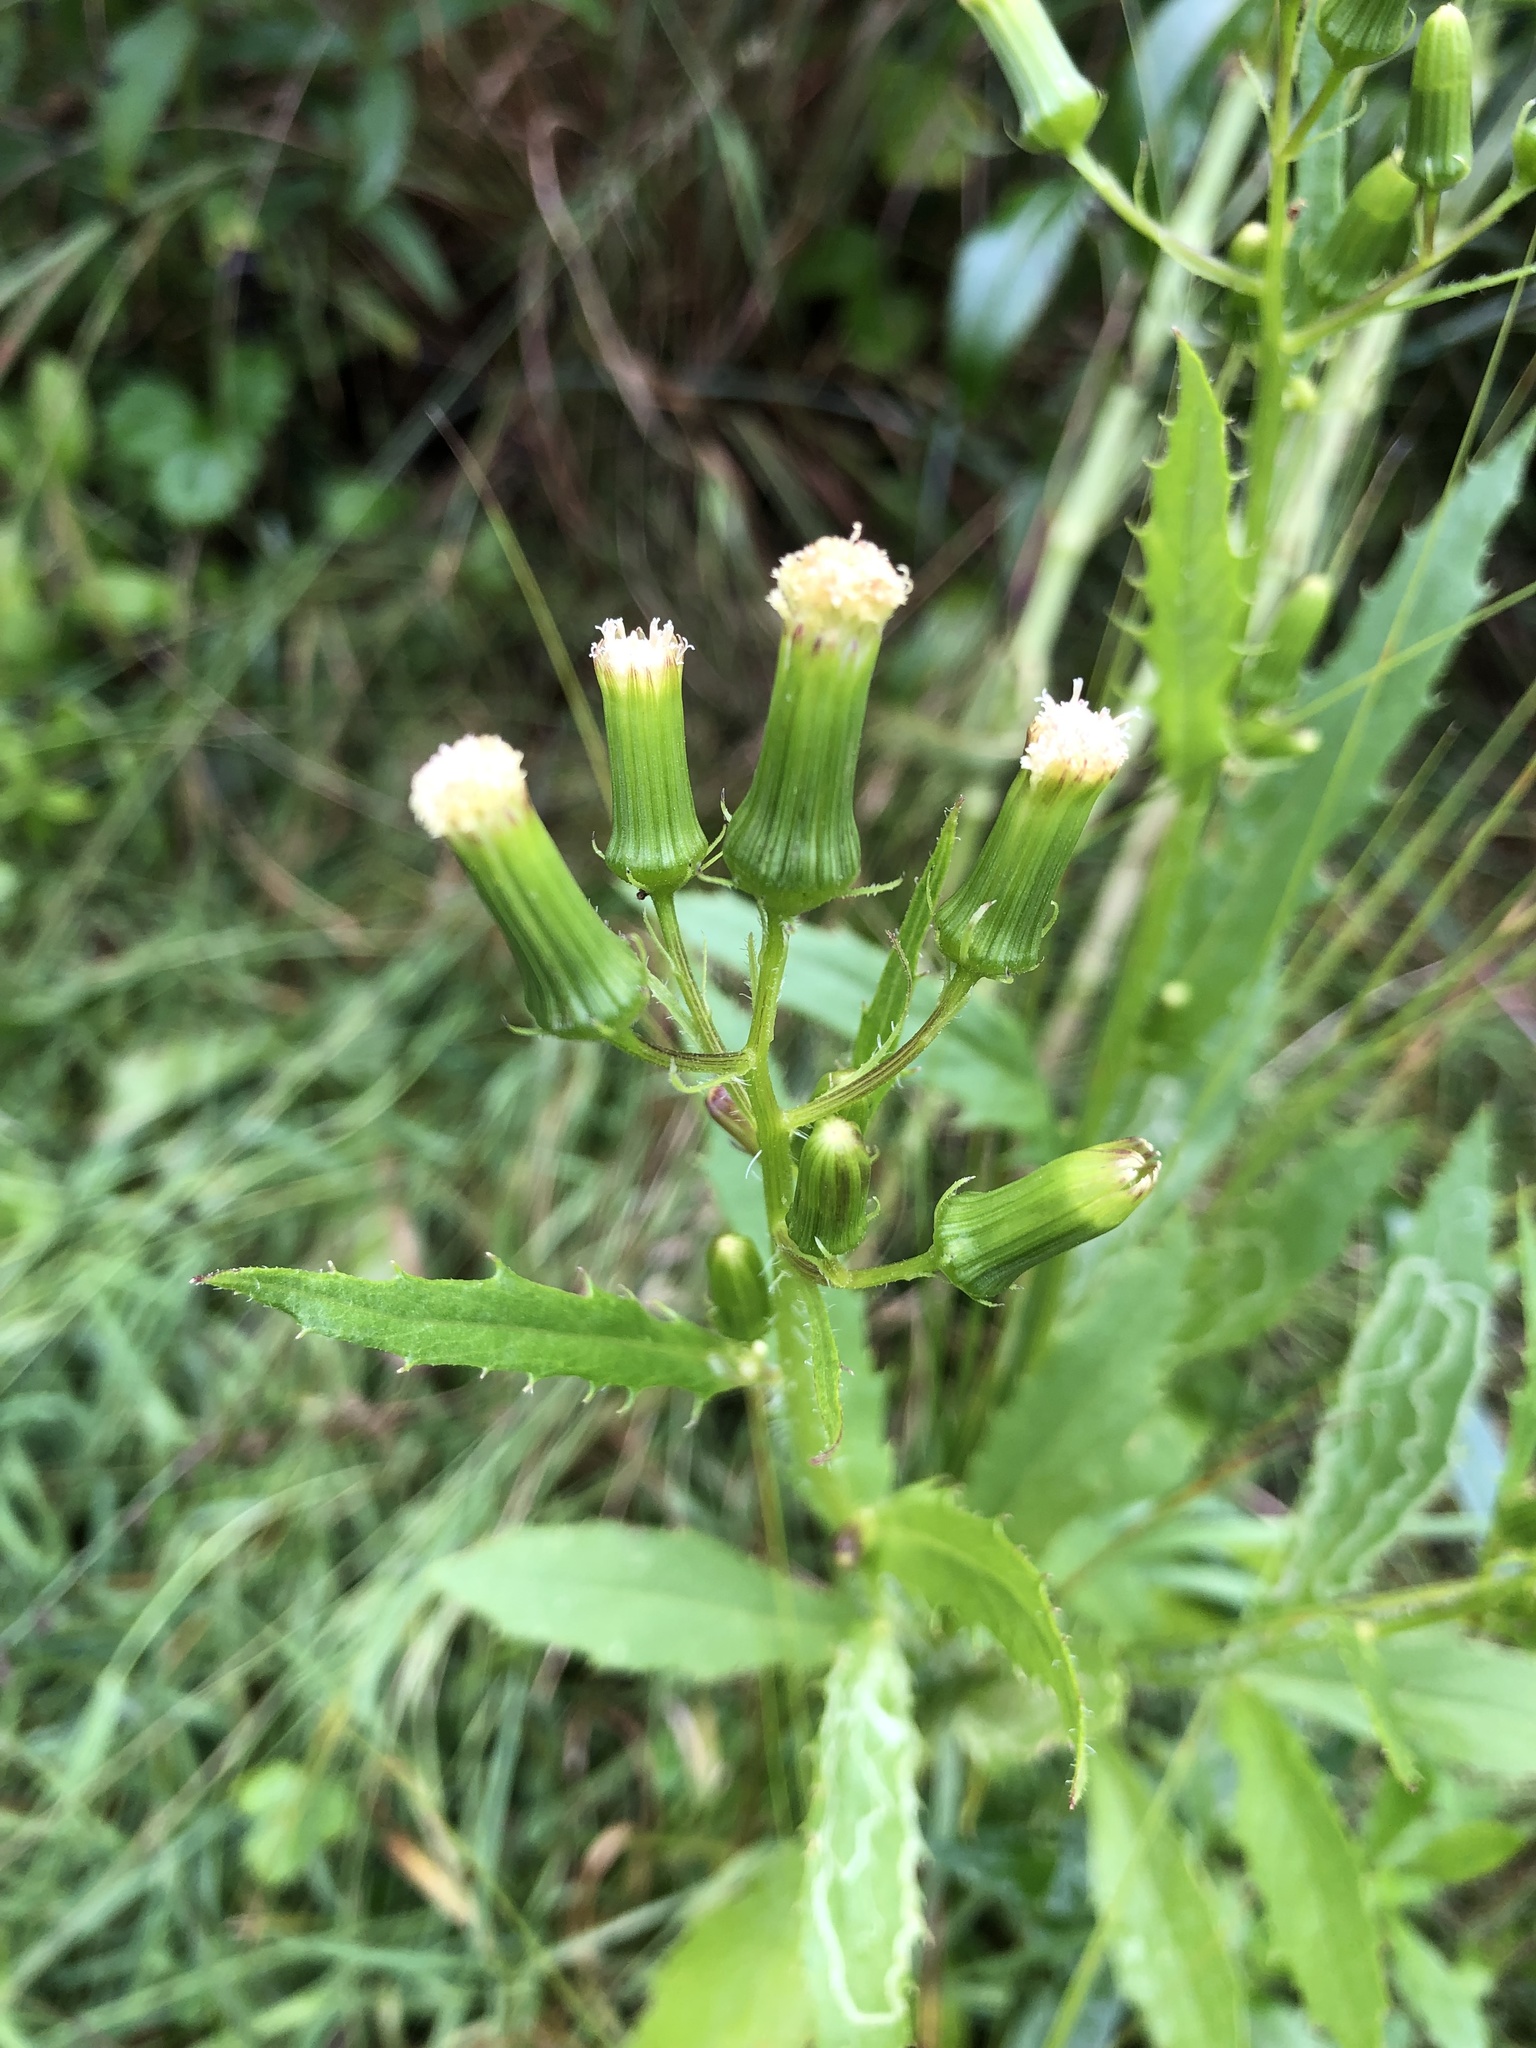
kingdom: Plantae
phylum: Tracheophyta
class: Magnoliopsida
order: Asterales
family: Asteraceae
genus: Erechtites
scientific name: Erechtites hieraciifolius
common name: American burnweed
